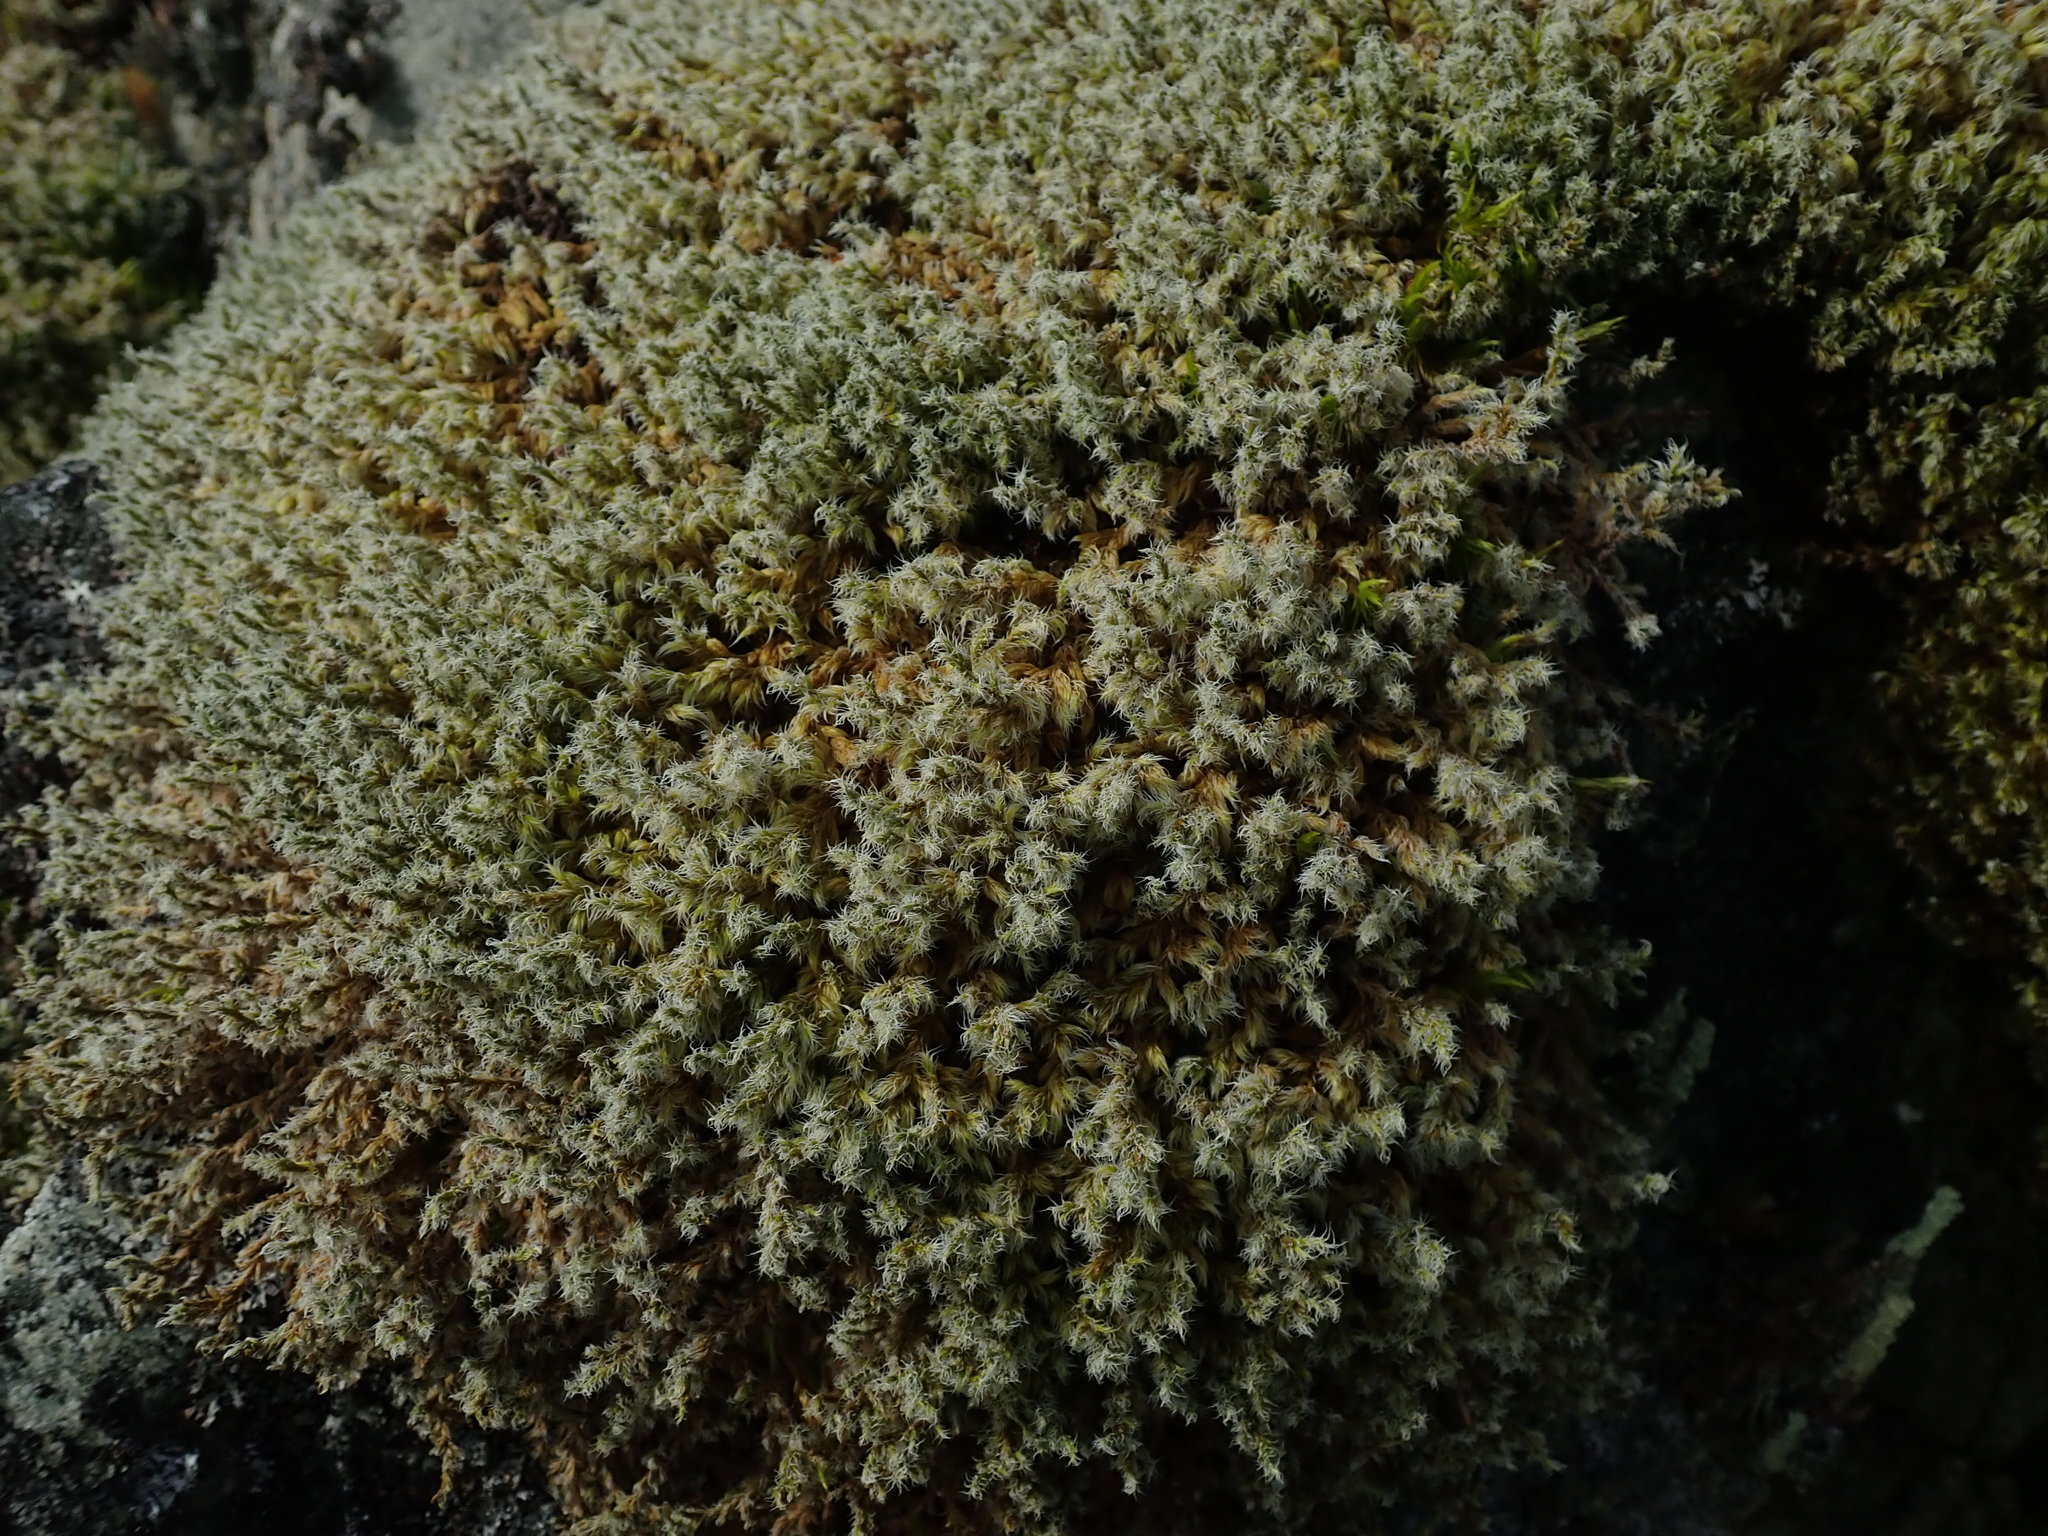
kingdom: Plantae
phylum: Bryophyta
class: Bryopsida
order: Grimmiales
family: Grimmiaceae
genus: Racomitrium
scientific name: Racomitrium lanuginosum
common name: Hoary rock moss
